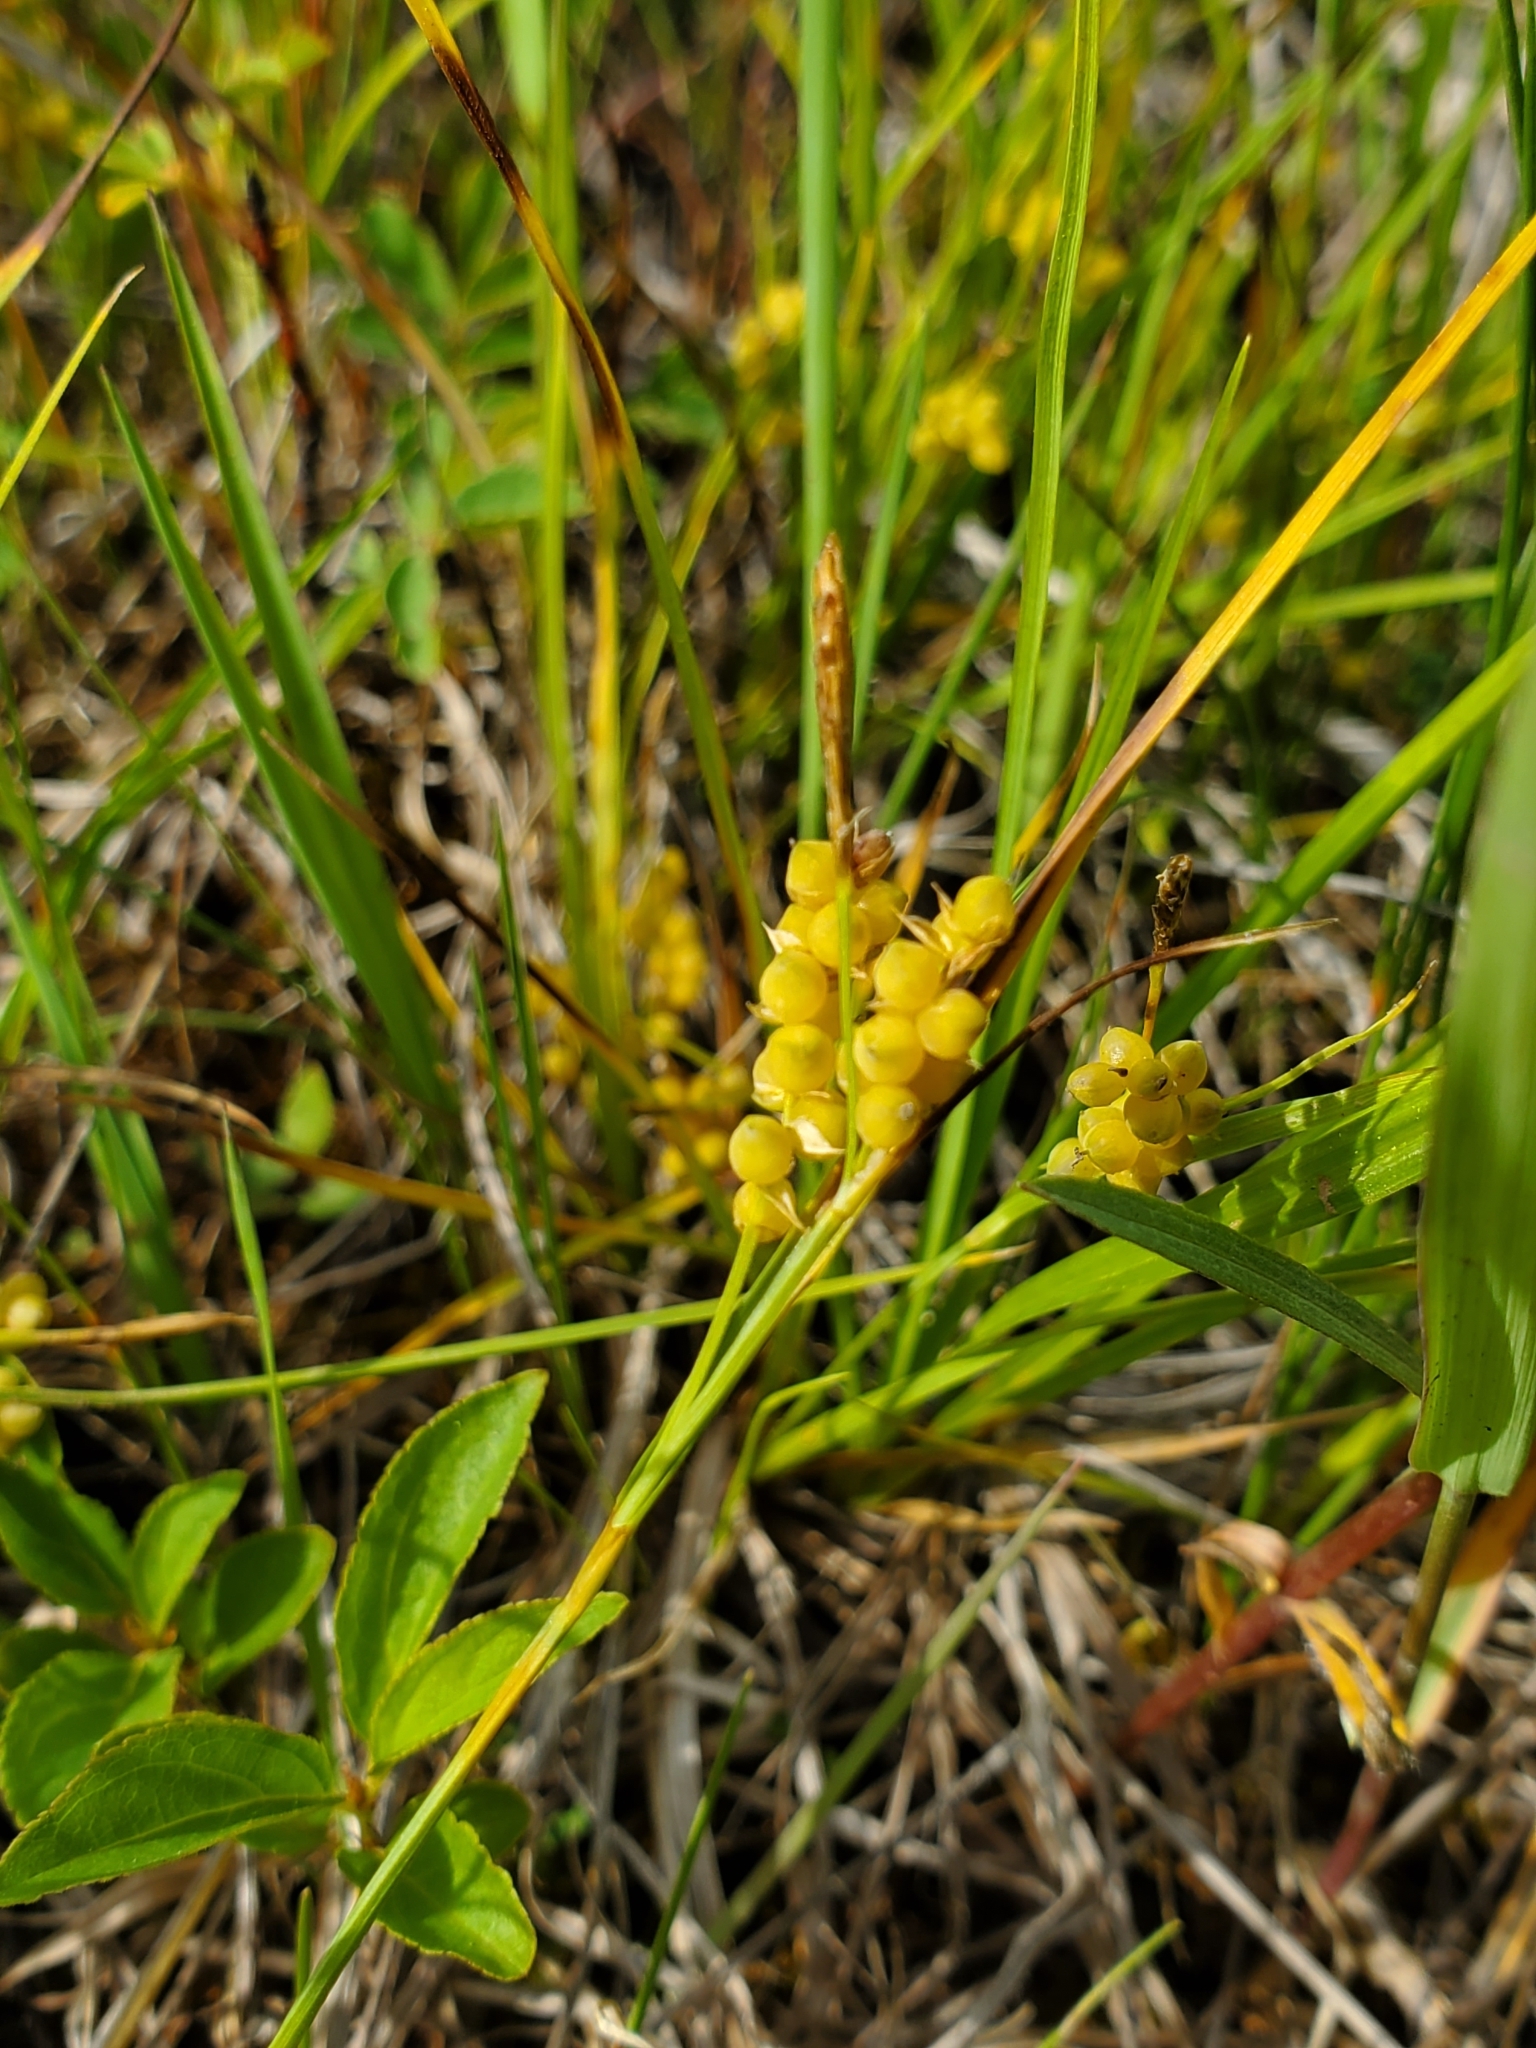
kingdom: Plantae
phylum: Tracheophyta
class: Liliopsida
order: Poales
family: Cyperaceae
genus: Carex
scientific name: Carex aurea
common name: Golden sedge
